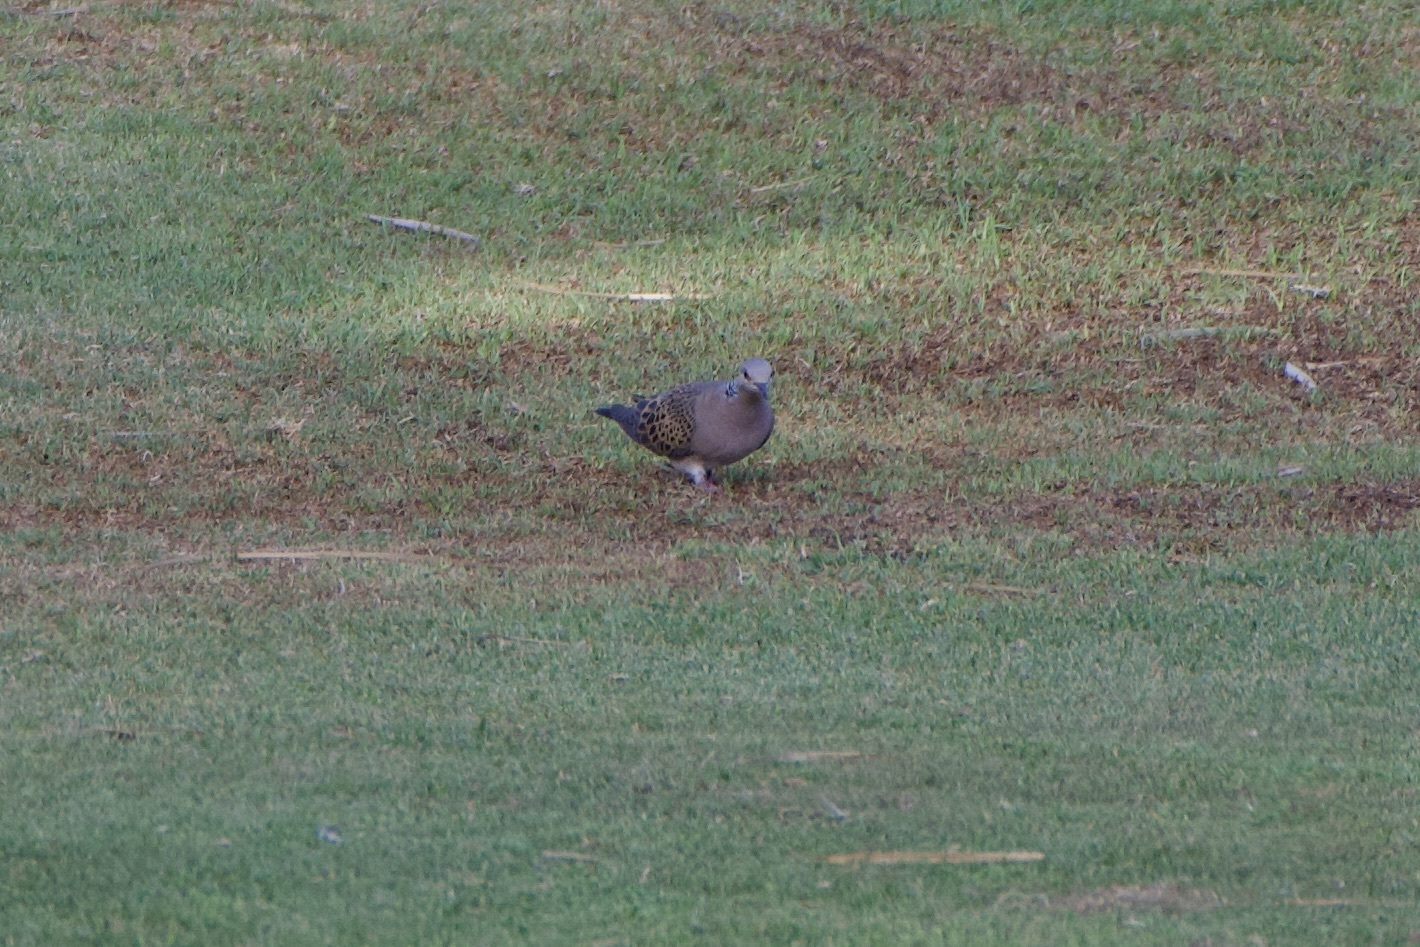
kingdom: Animalia
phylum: Chordata
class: Aves
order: Columbiformes
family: Columbidae
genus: Streptopelia
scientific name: Streptopelia turtur
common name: European turtle dove
